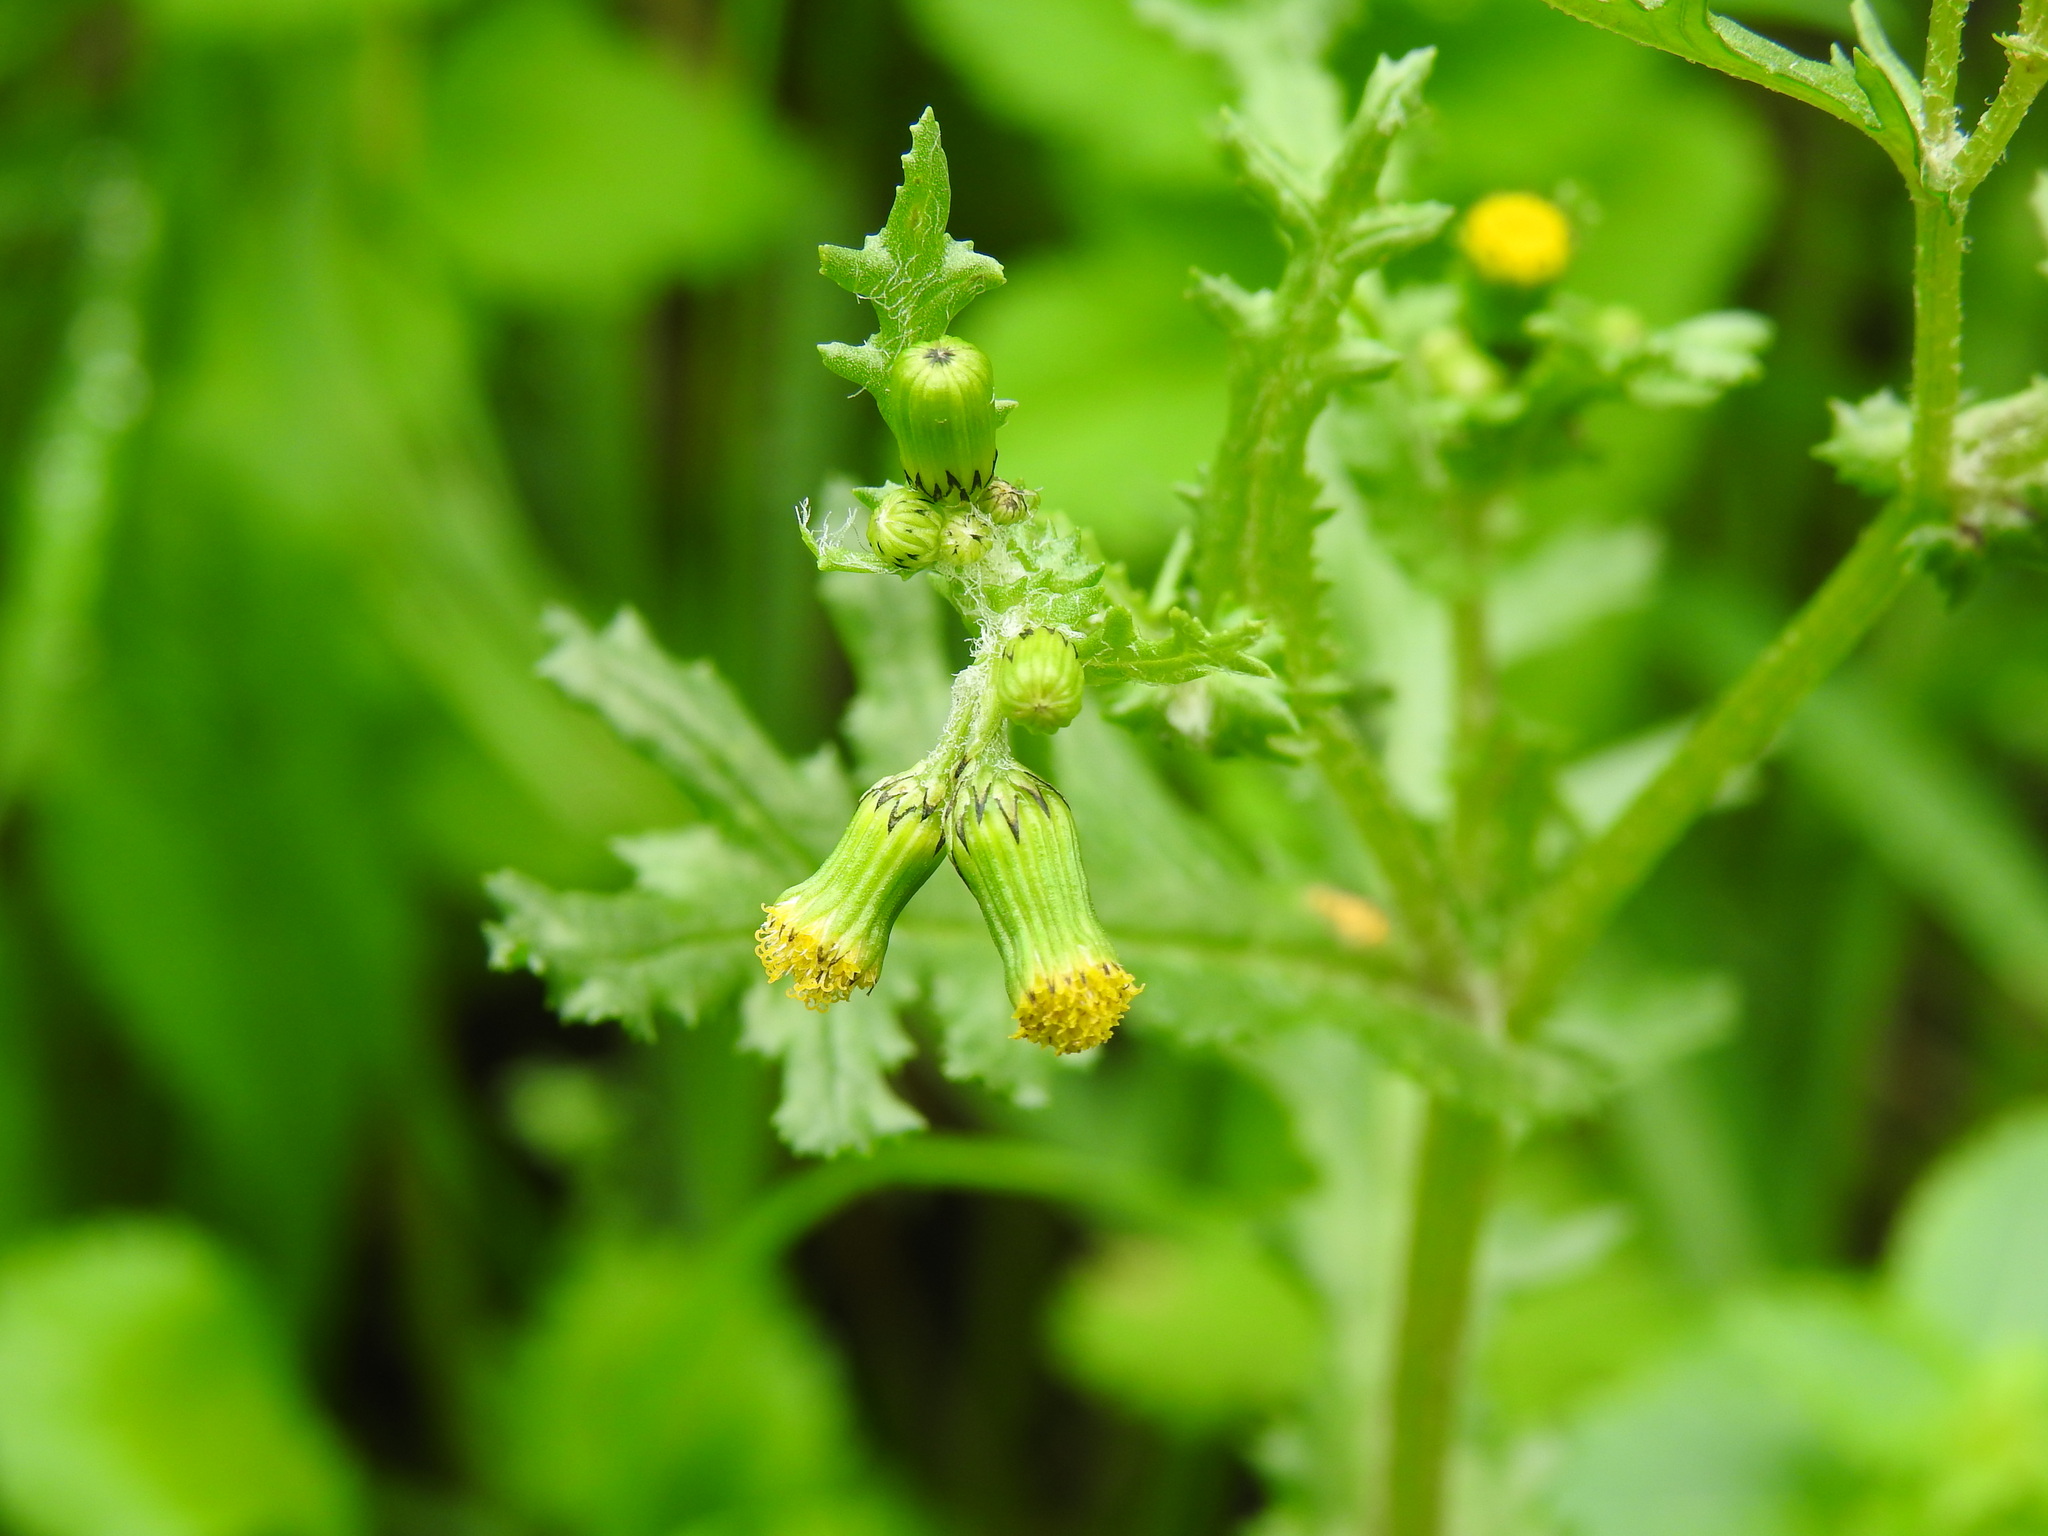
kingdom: Plantae
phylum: Tracheophyta
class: Magnoliopsida
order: Asterales
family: Asteraceae
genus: Senecio
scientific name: Senecio vulgaris
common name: Old-man-in-the-spring
